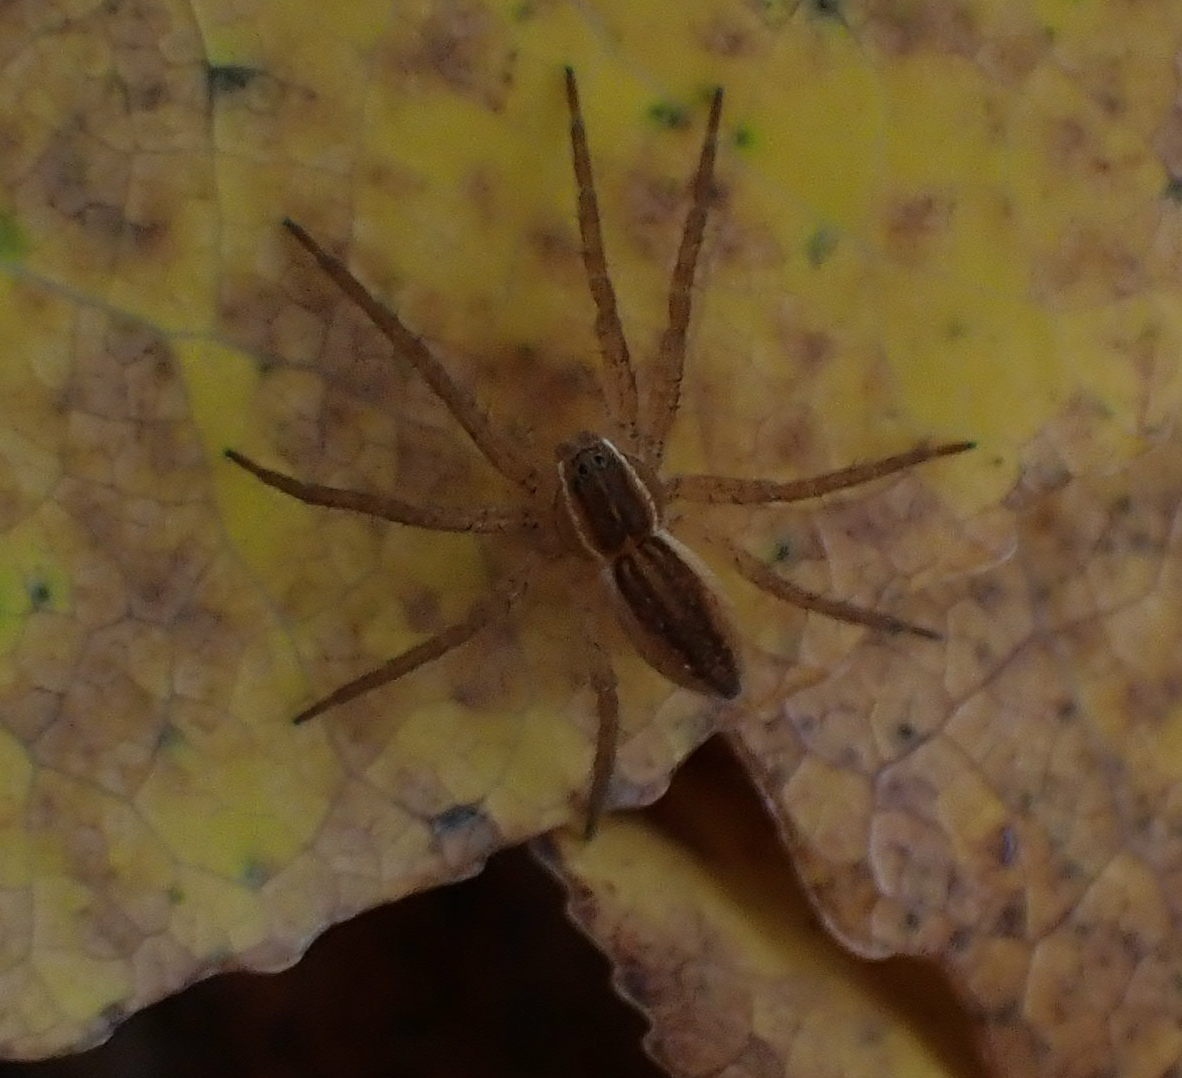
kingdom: Animalia
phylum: Arthropoda
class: Arachnida
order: Araneae
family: Pisauridae
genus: Dolomedes
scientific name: Dolomedes triton
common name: Six-spotted fishing spider
